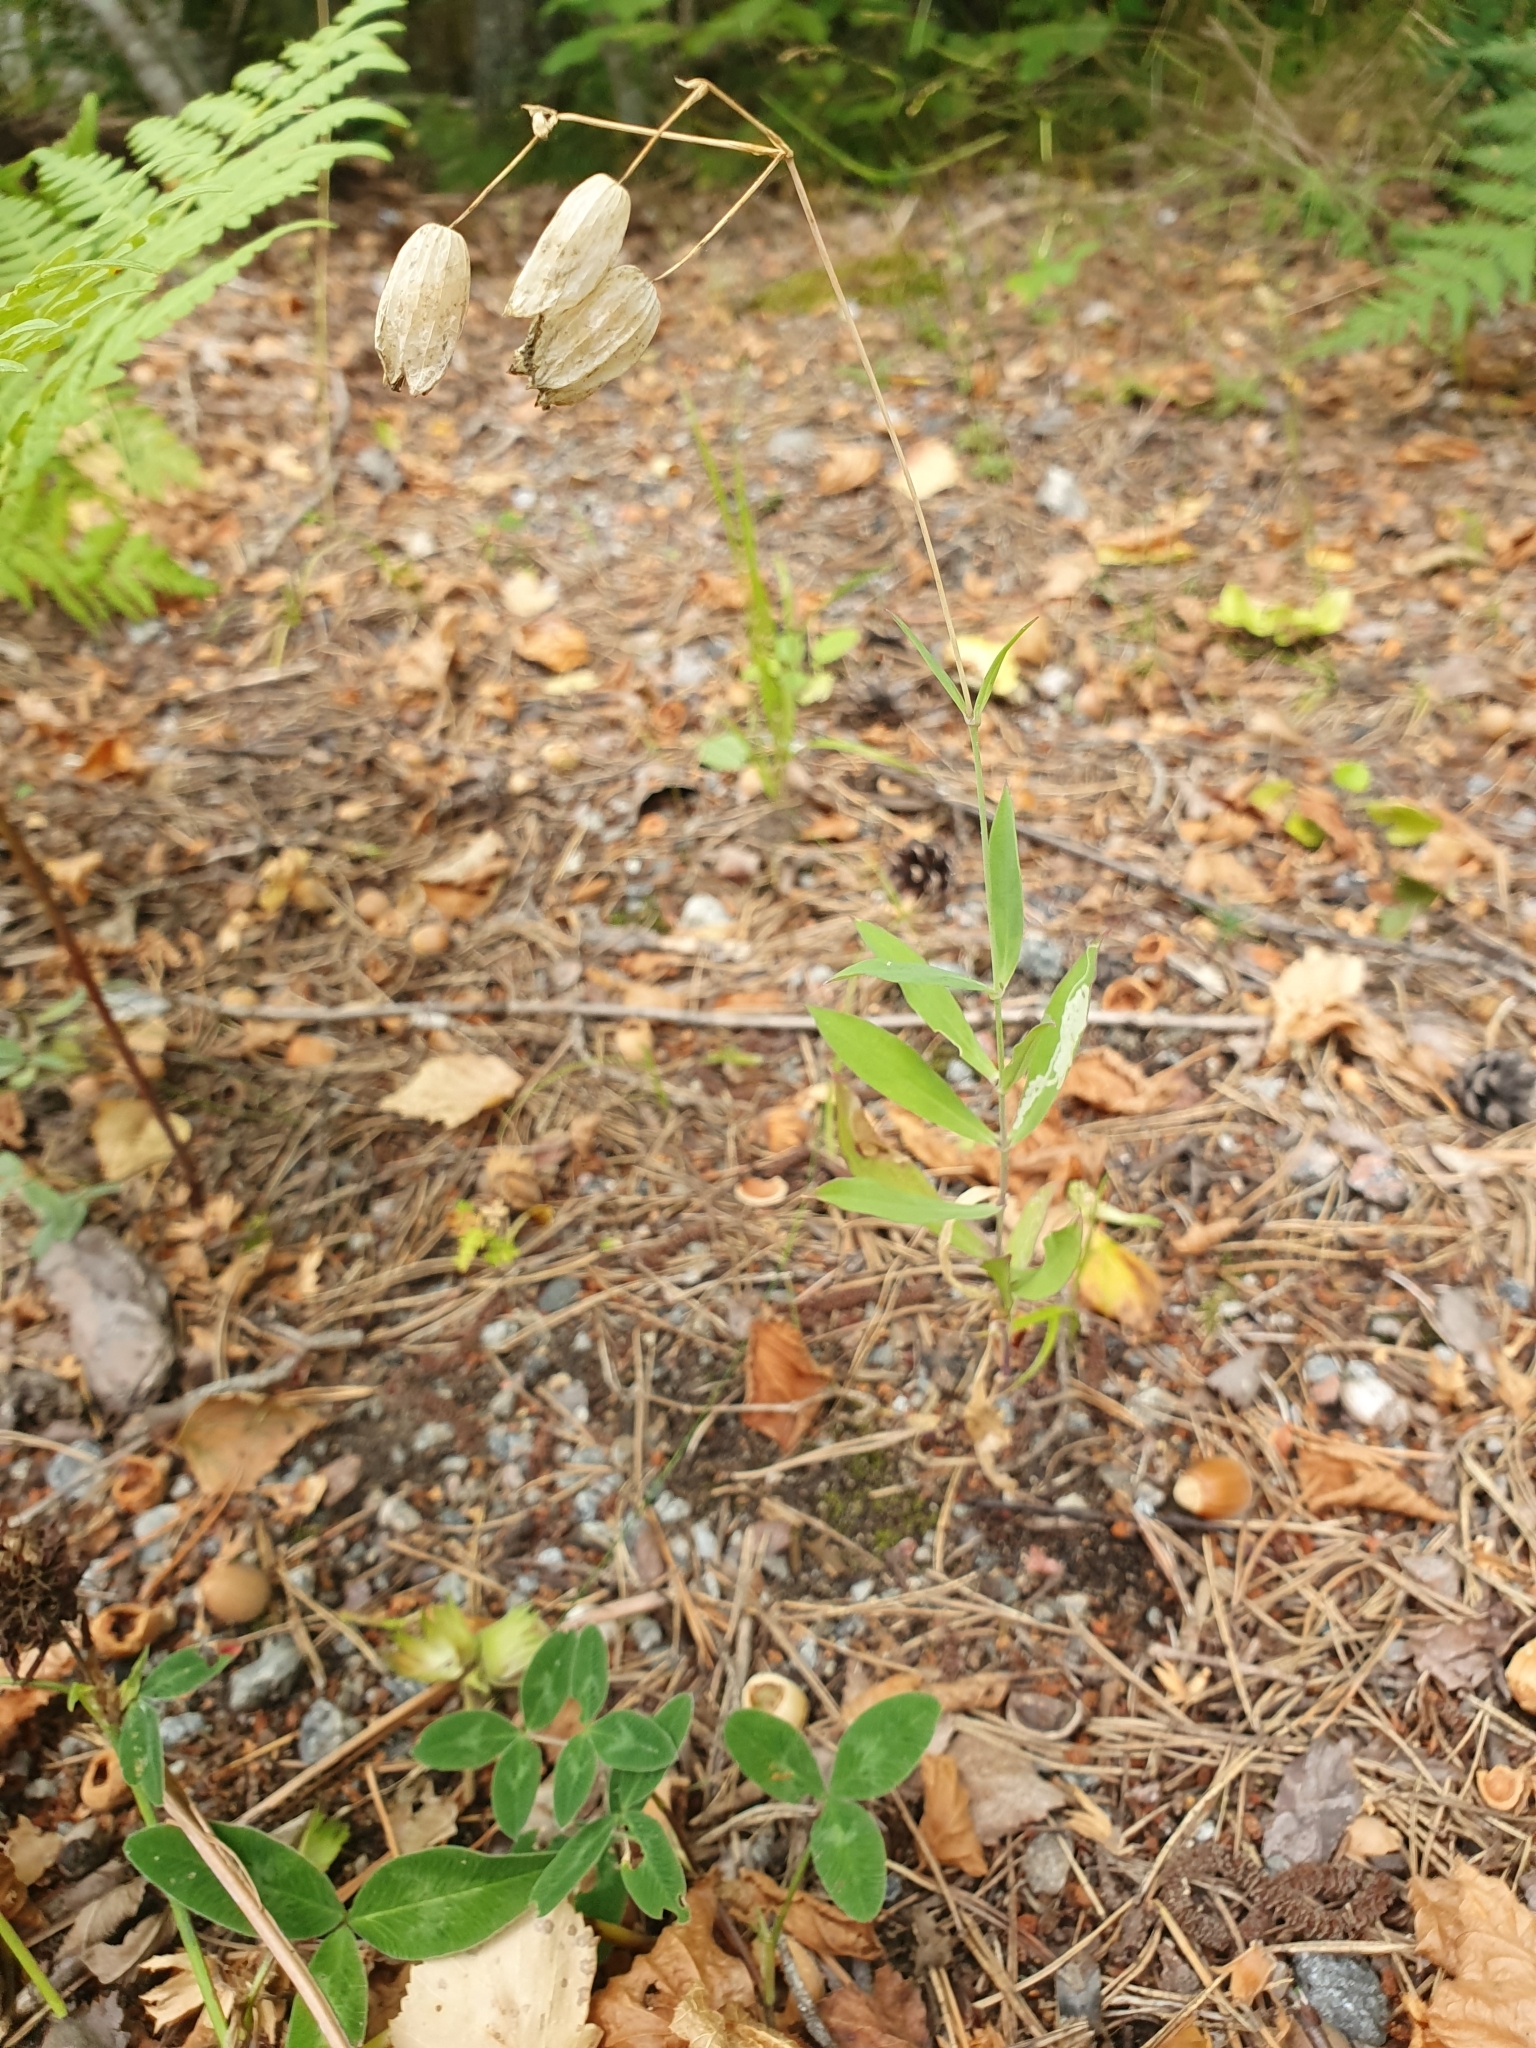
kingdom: Plantae
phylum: Tracheophyta
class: Magnoliopsida
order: Caryophyllales
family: Caryophyllaceae
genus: Silene
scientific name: Silene vulgaris
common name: Bladder campion
